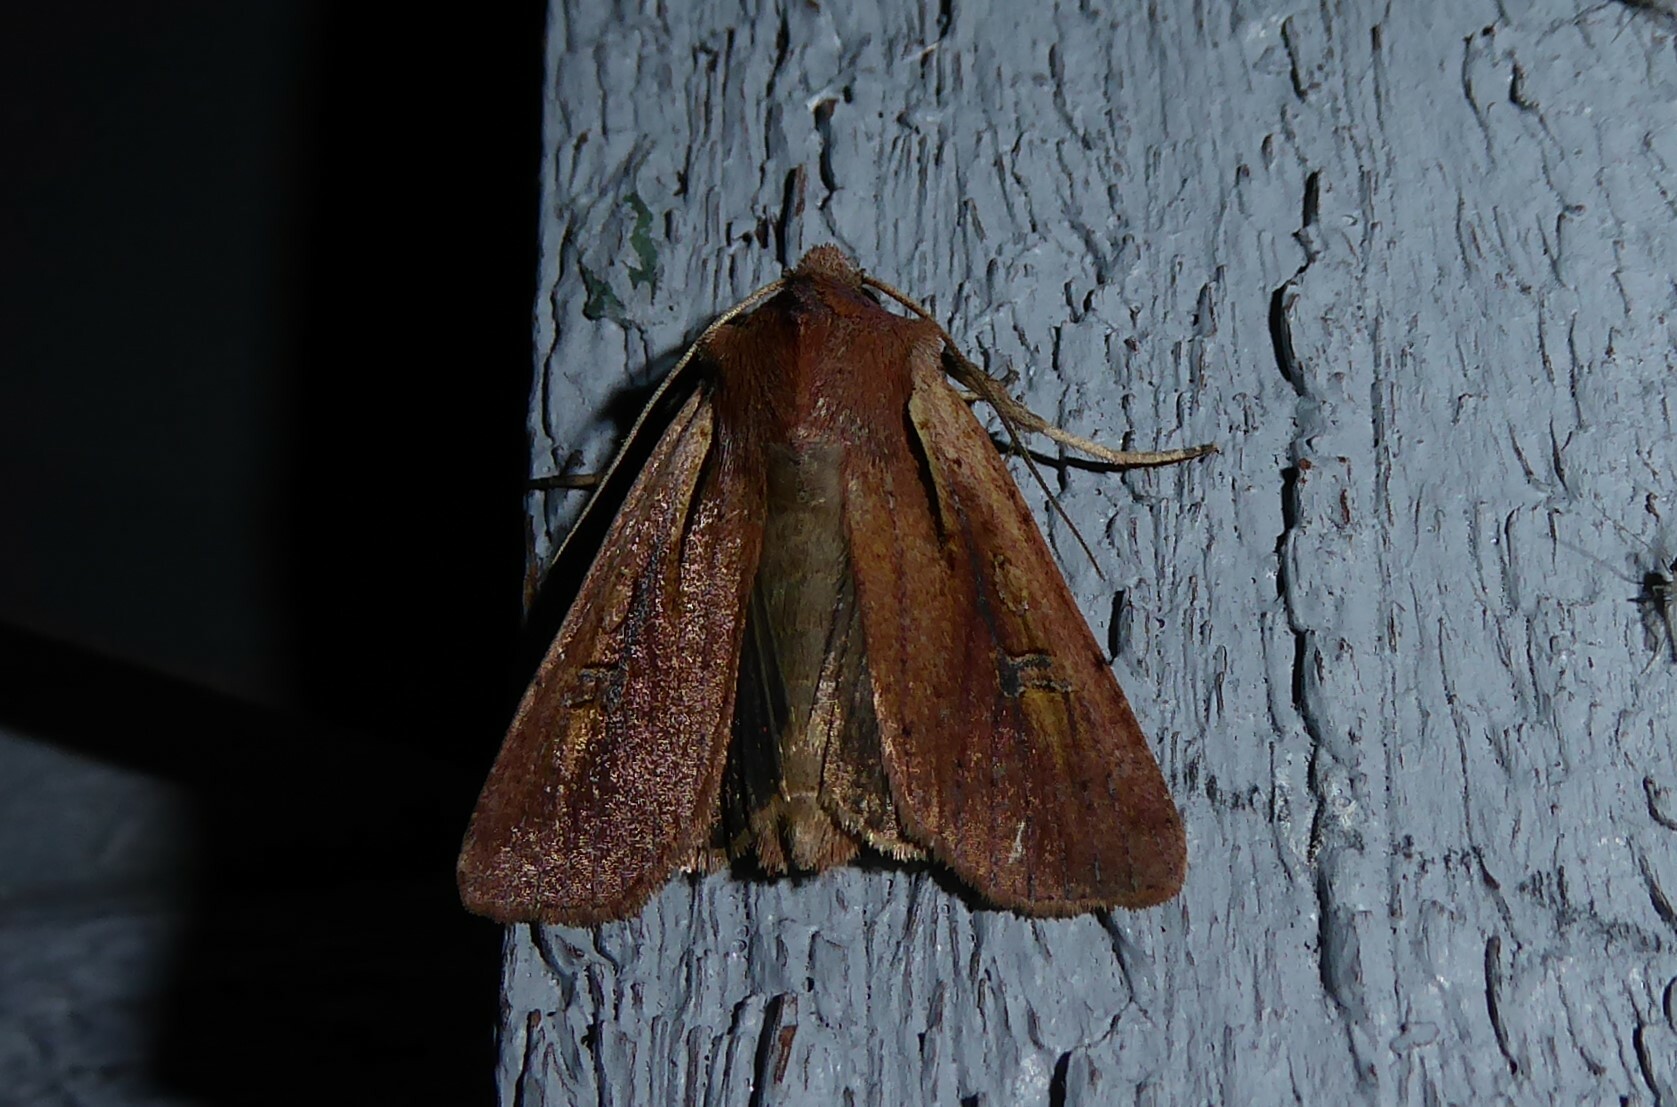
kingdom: Animalia
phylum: Arthropoda
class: Insecta
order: Lepidoptera
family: Noctuidae
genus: Ichneutica
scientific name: Ichneutica atristriga
